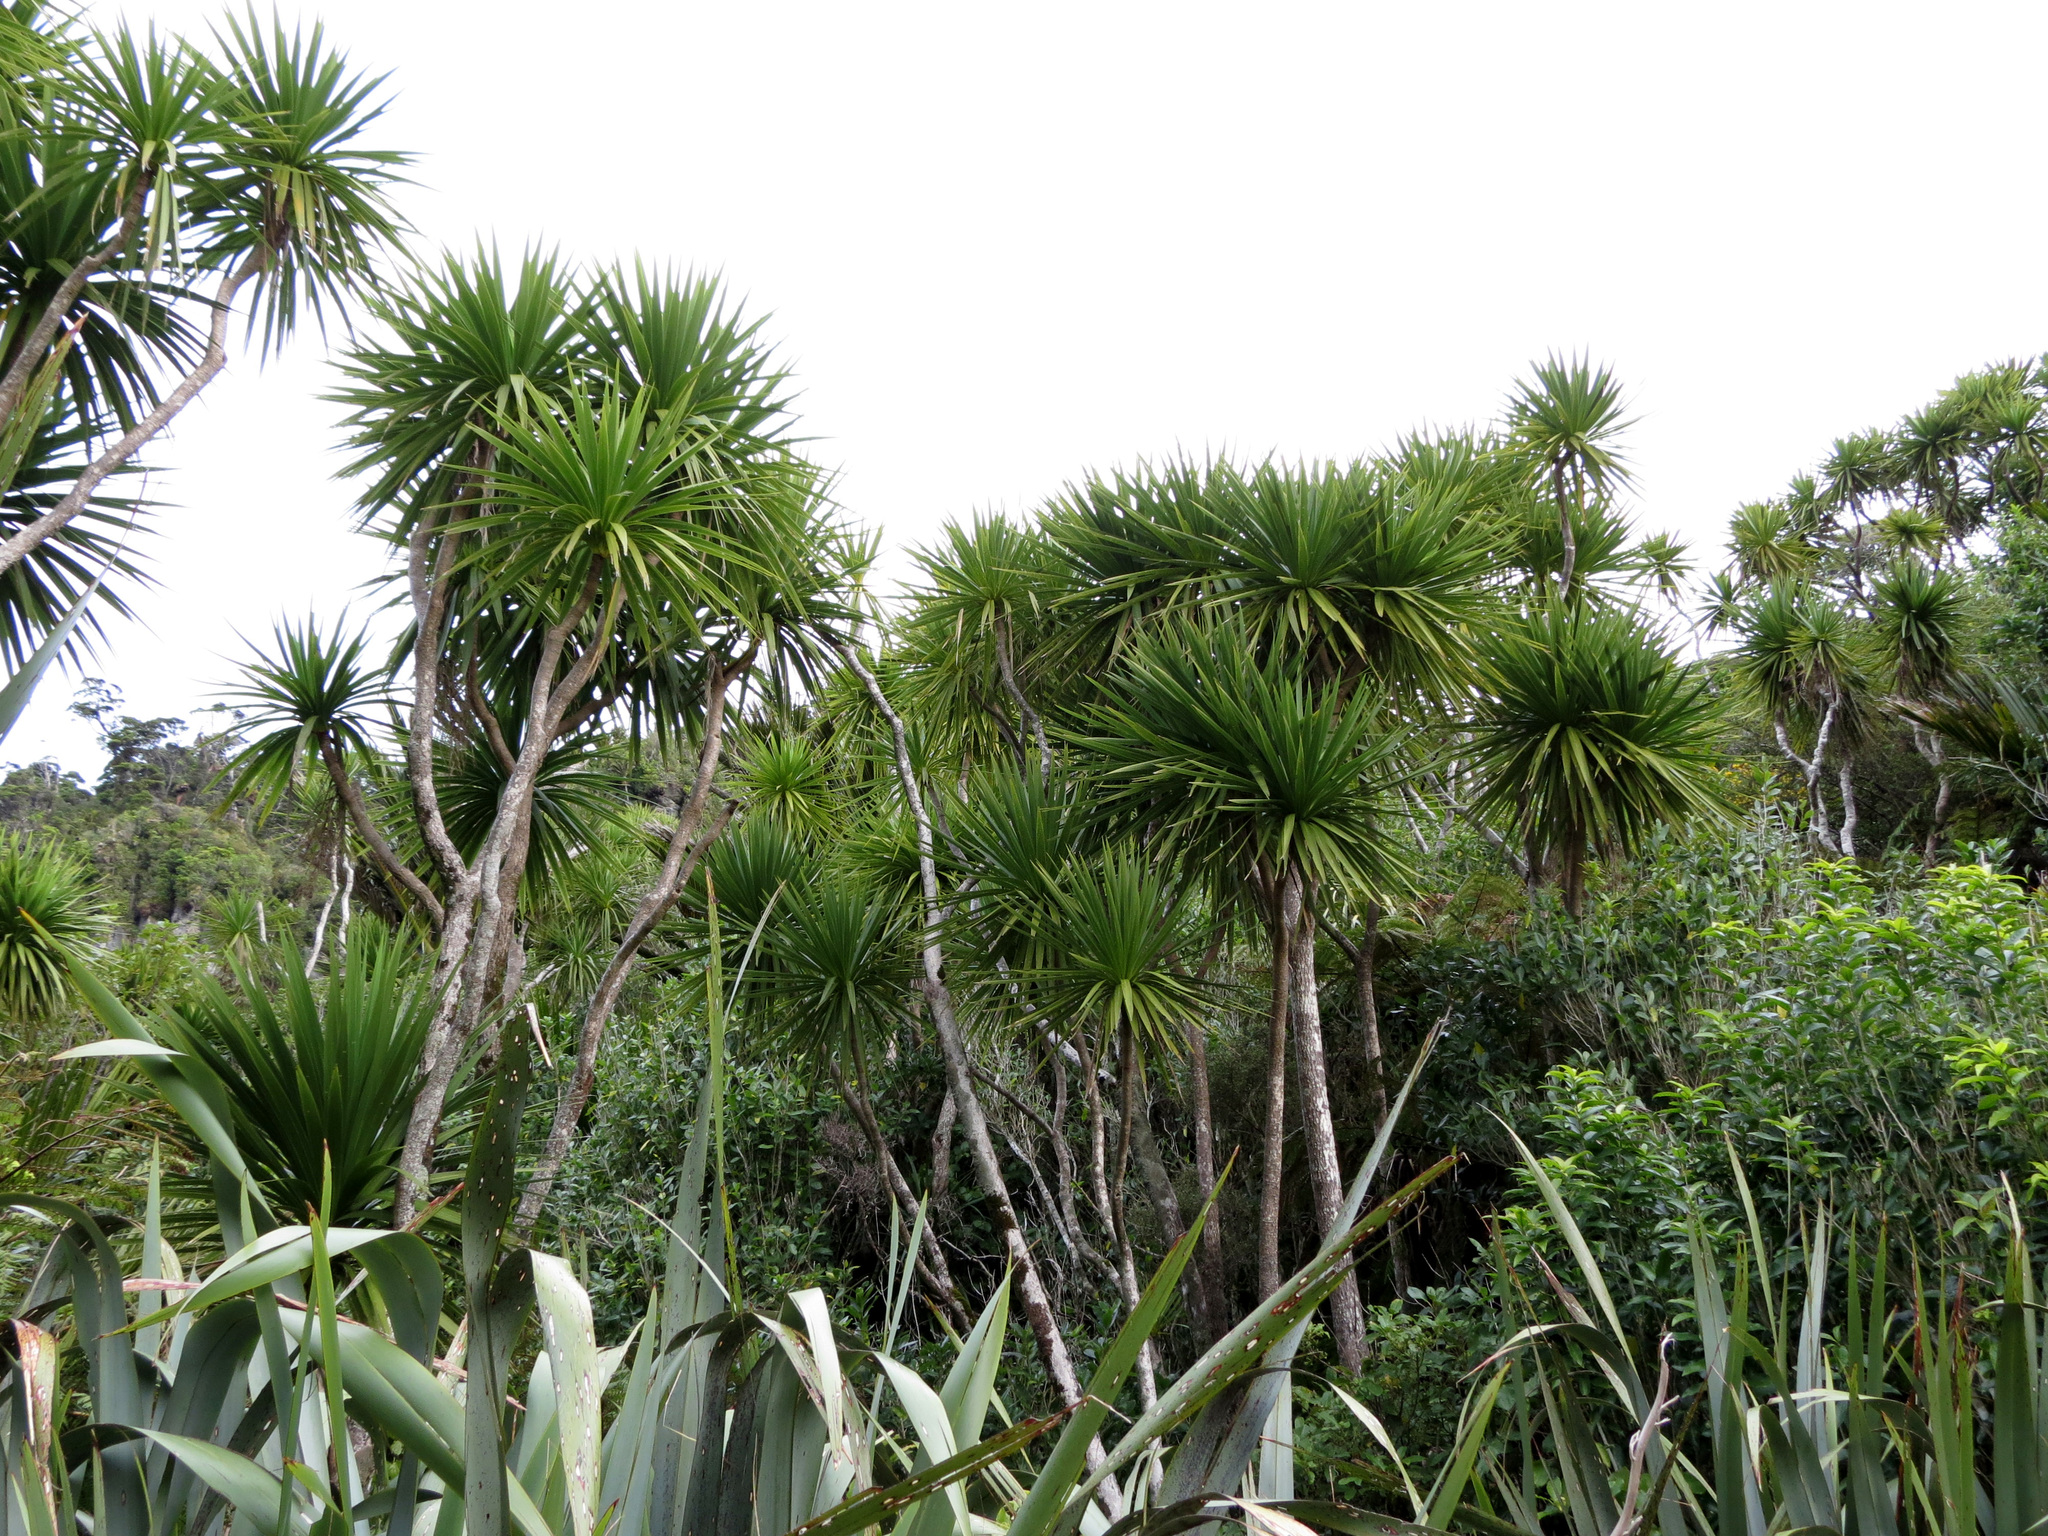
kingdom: Plantae
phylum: Tracheophyta
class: Liliopsida
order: Asparagales
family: Asparagaceae
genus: Cordyline
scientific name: Cordyline australis
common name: Cabbage-palm
